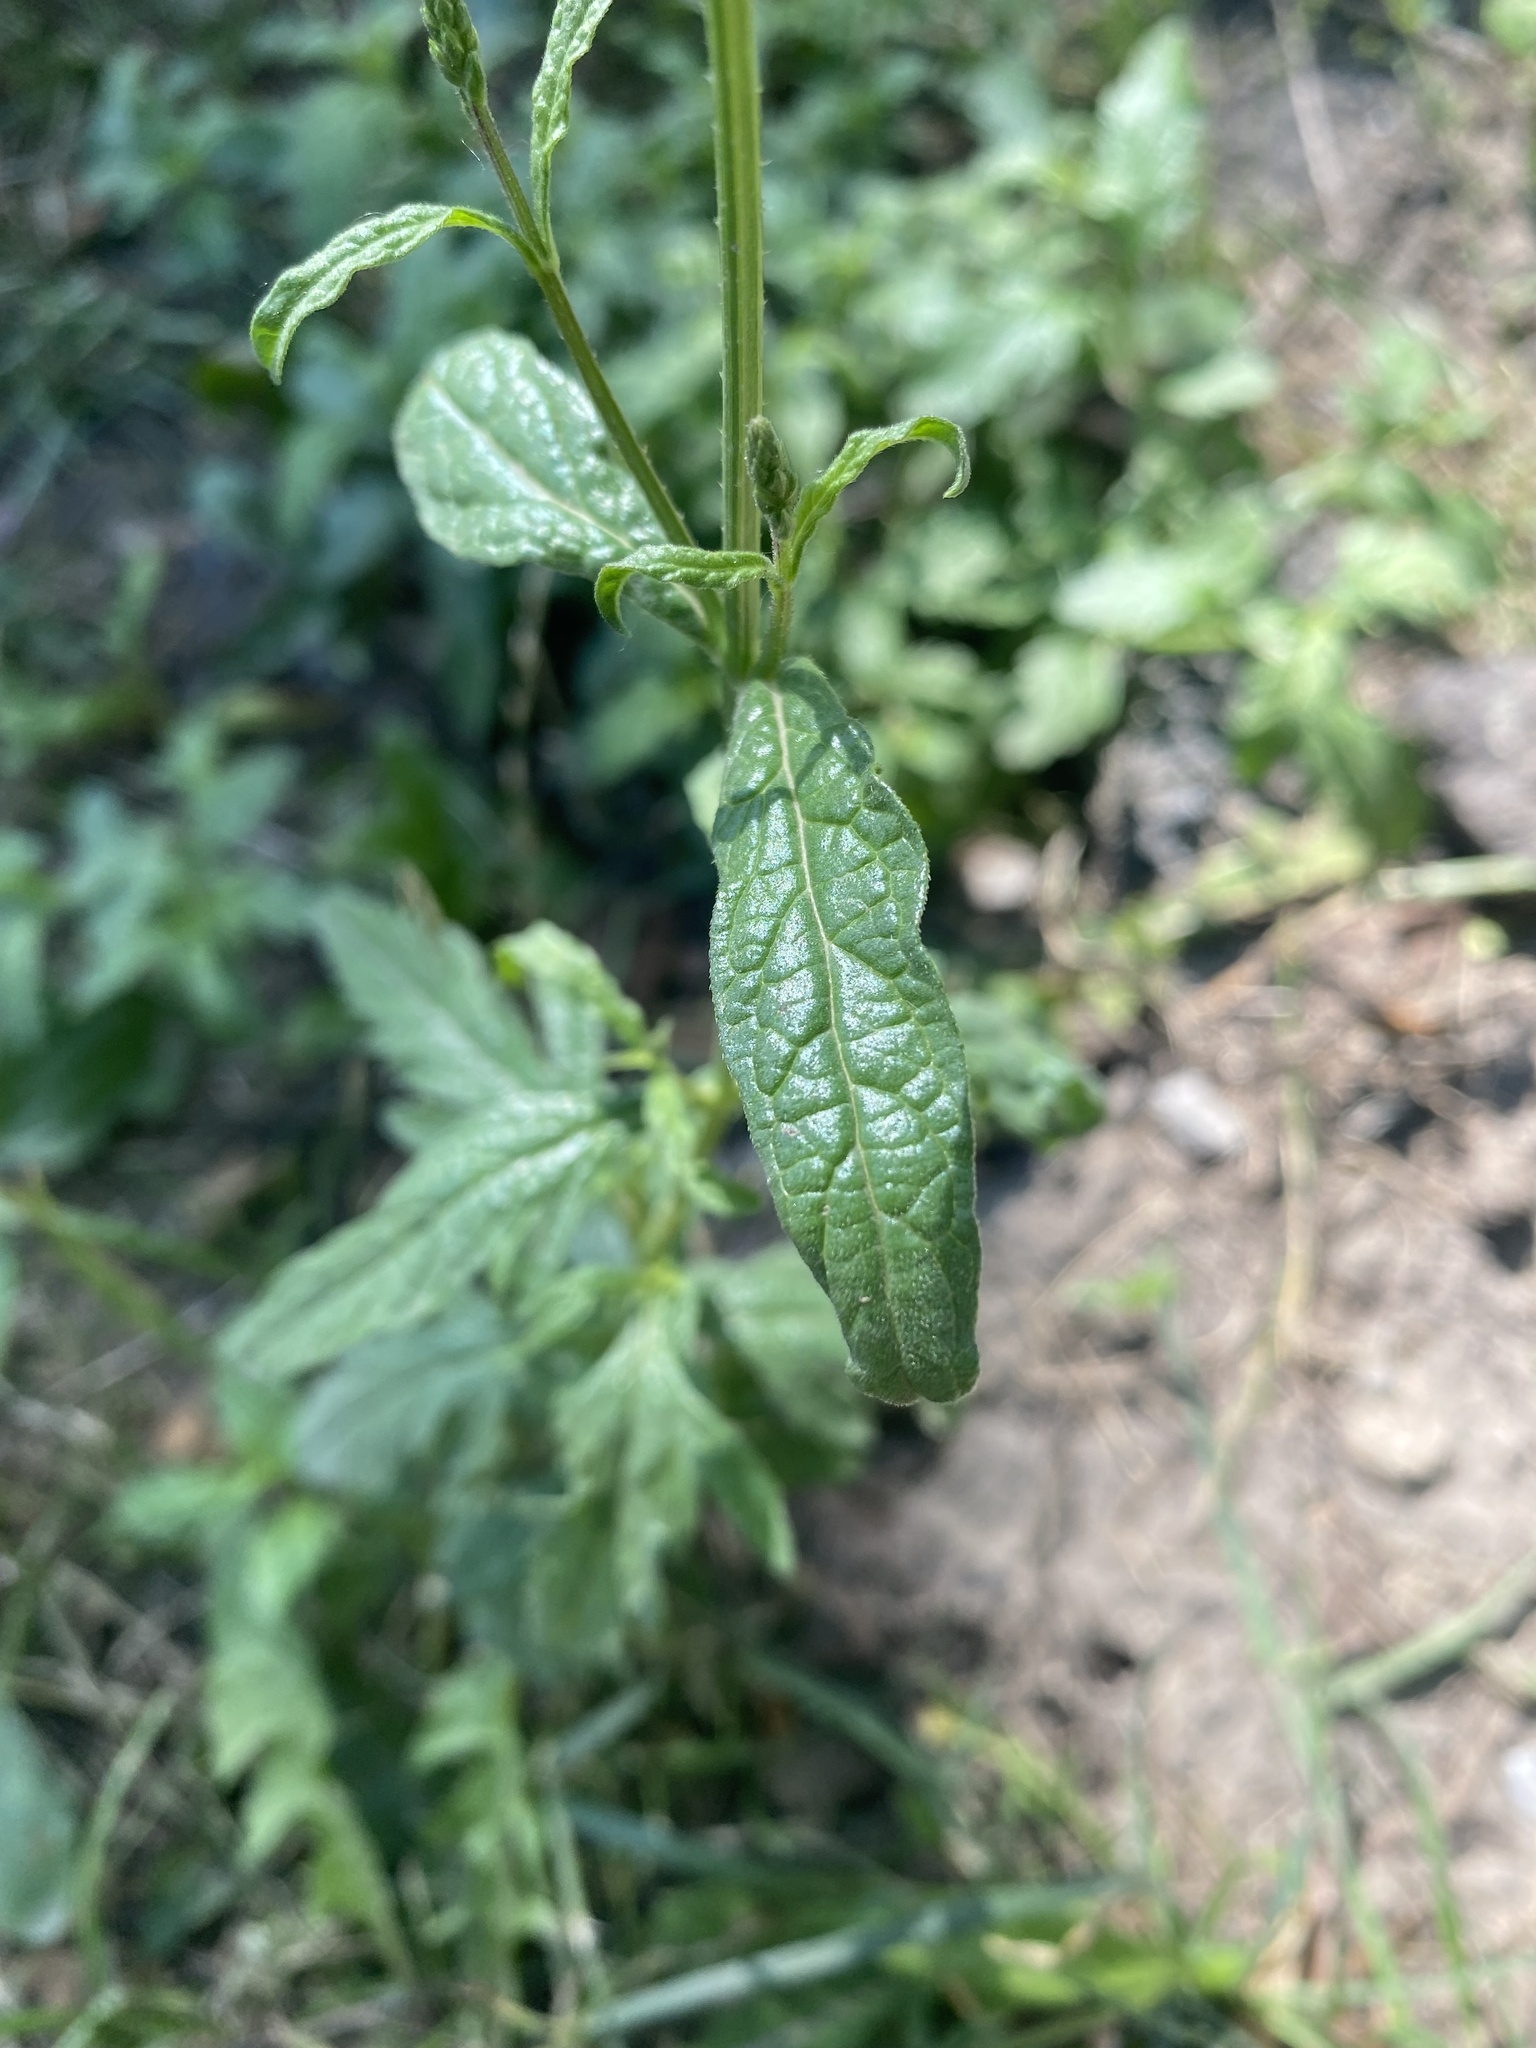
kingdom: Plantae
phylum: Tracheophyta
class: Magnoliopsida
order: Lamiales
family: Verbenaceae
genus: Verbena
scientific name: Verbena officinalis
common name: Vervain
